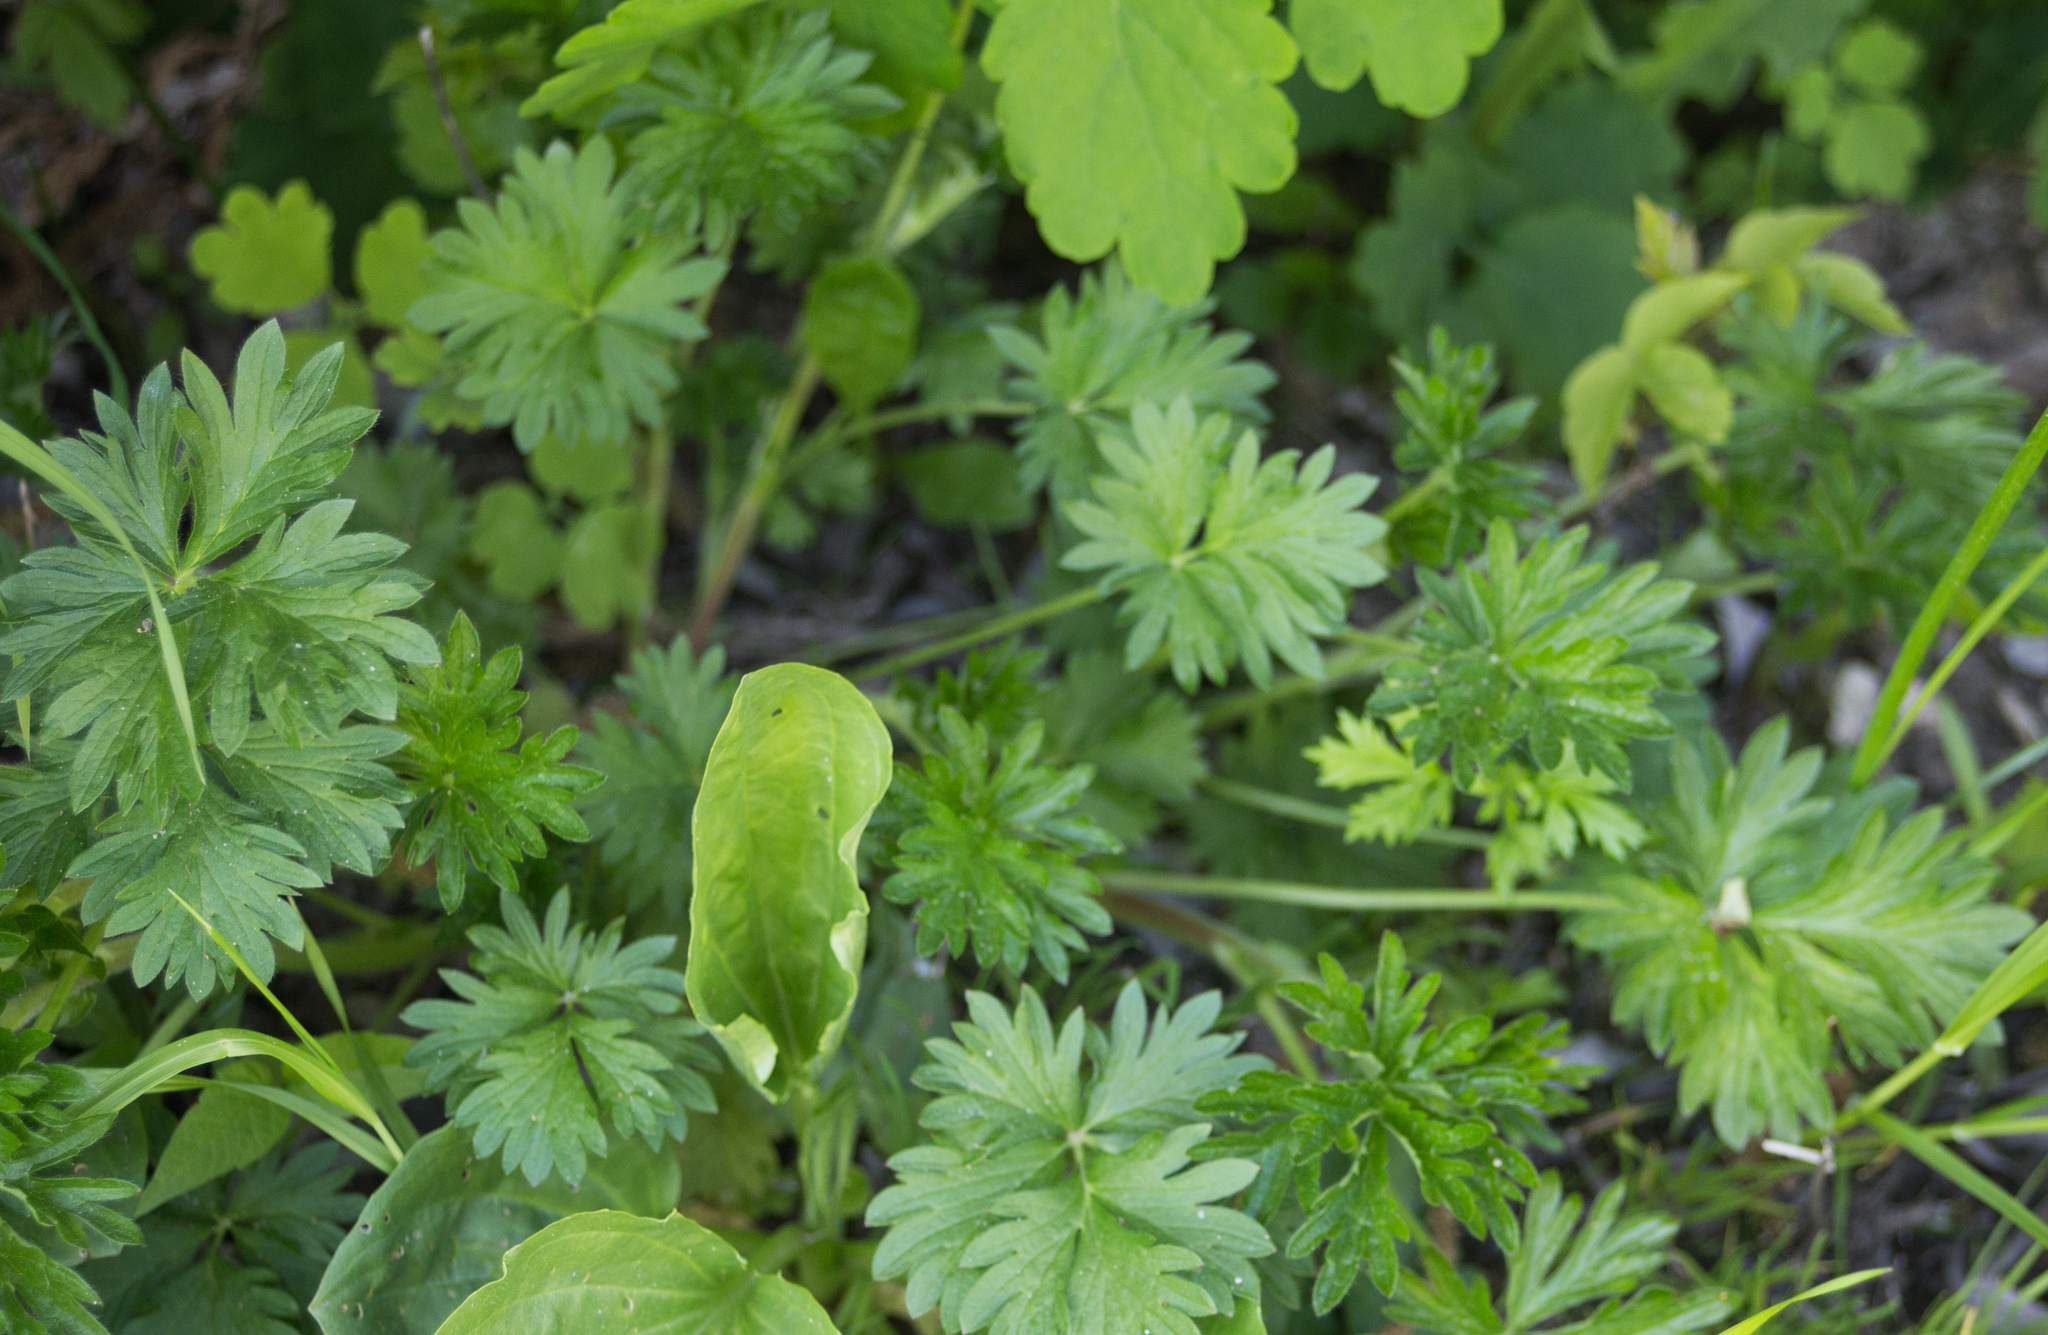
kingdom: Plantae
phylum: Tracheophyta
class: Magnoliopsida
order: Rosales
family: Rosaceae
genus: Potentilla
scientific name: Potentilla intermedia
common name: Downy cinquefoil
